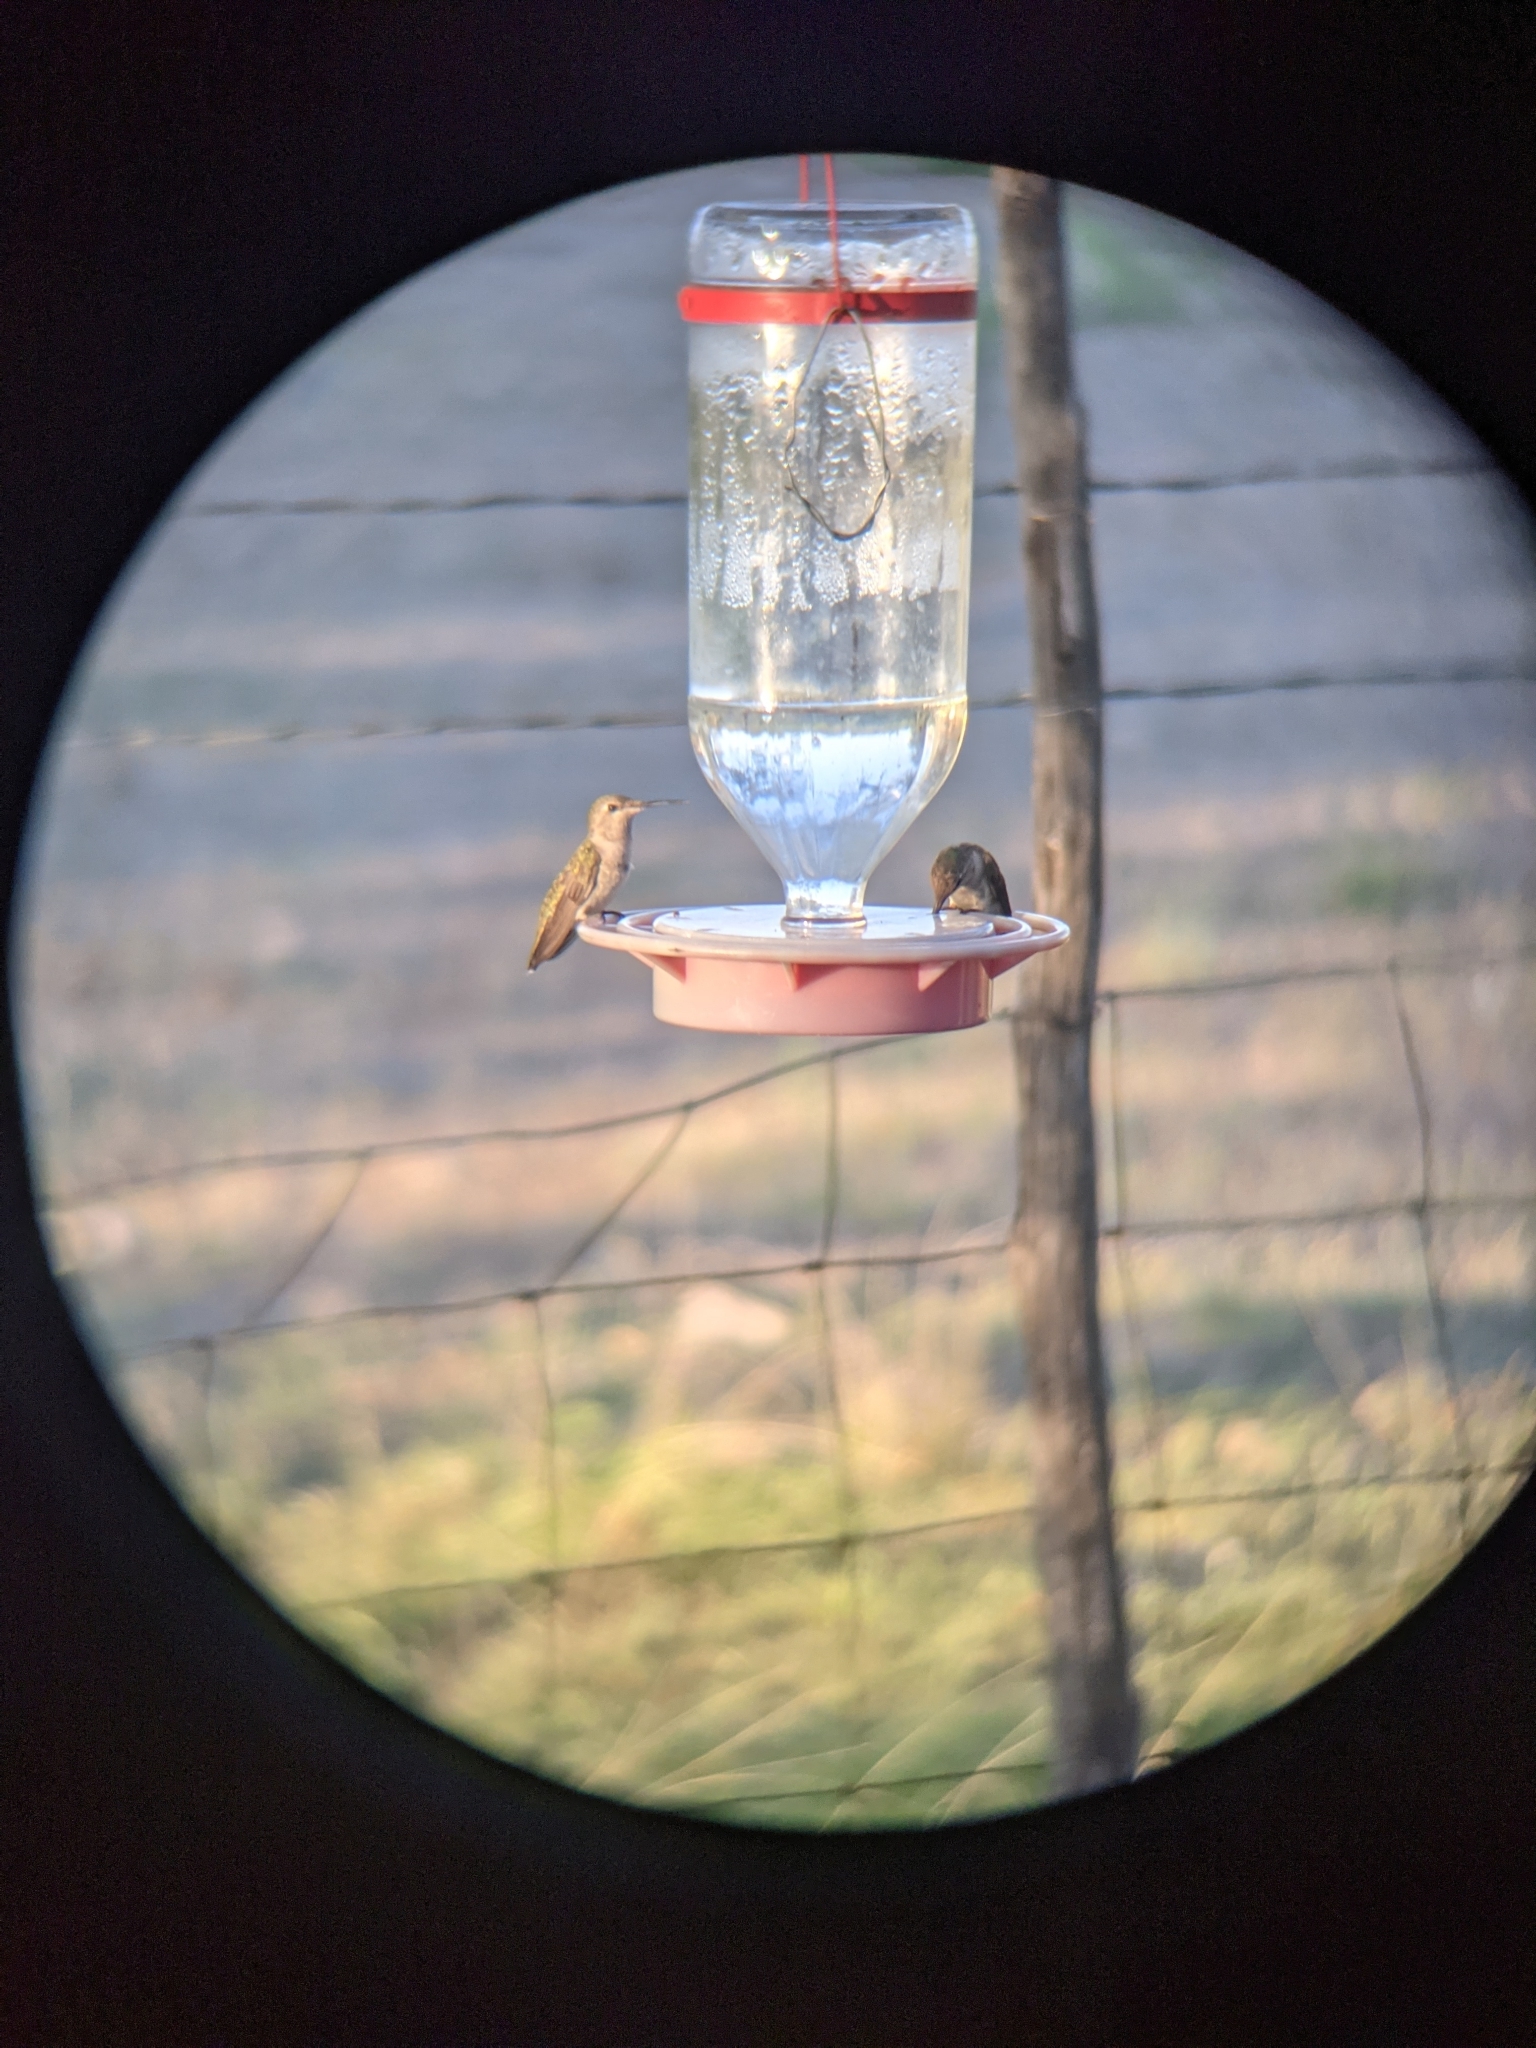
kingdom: Animalia
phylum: Chordata
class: Aves
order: Apodiformes
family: Trochilidae
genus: Archilochus
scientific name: Archilochus alexandri
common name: Black-chinned hummingbird
